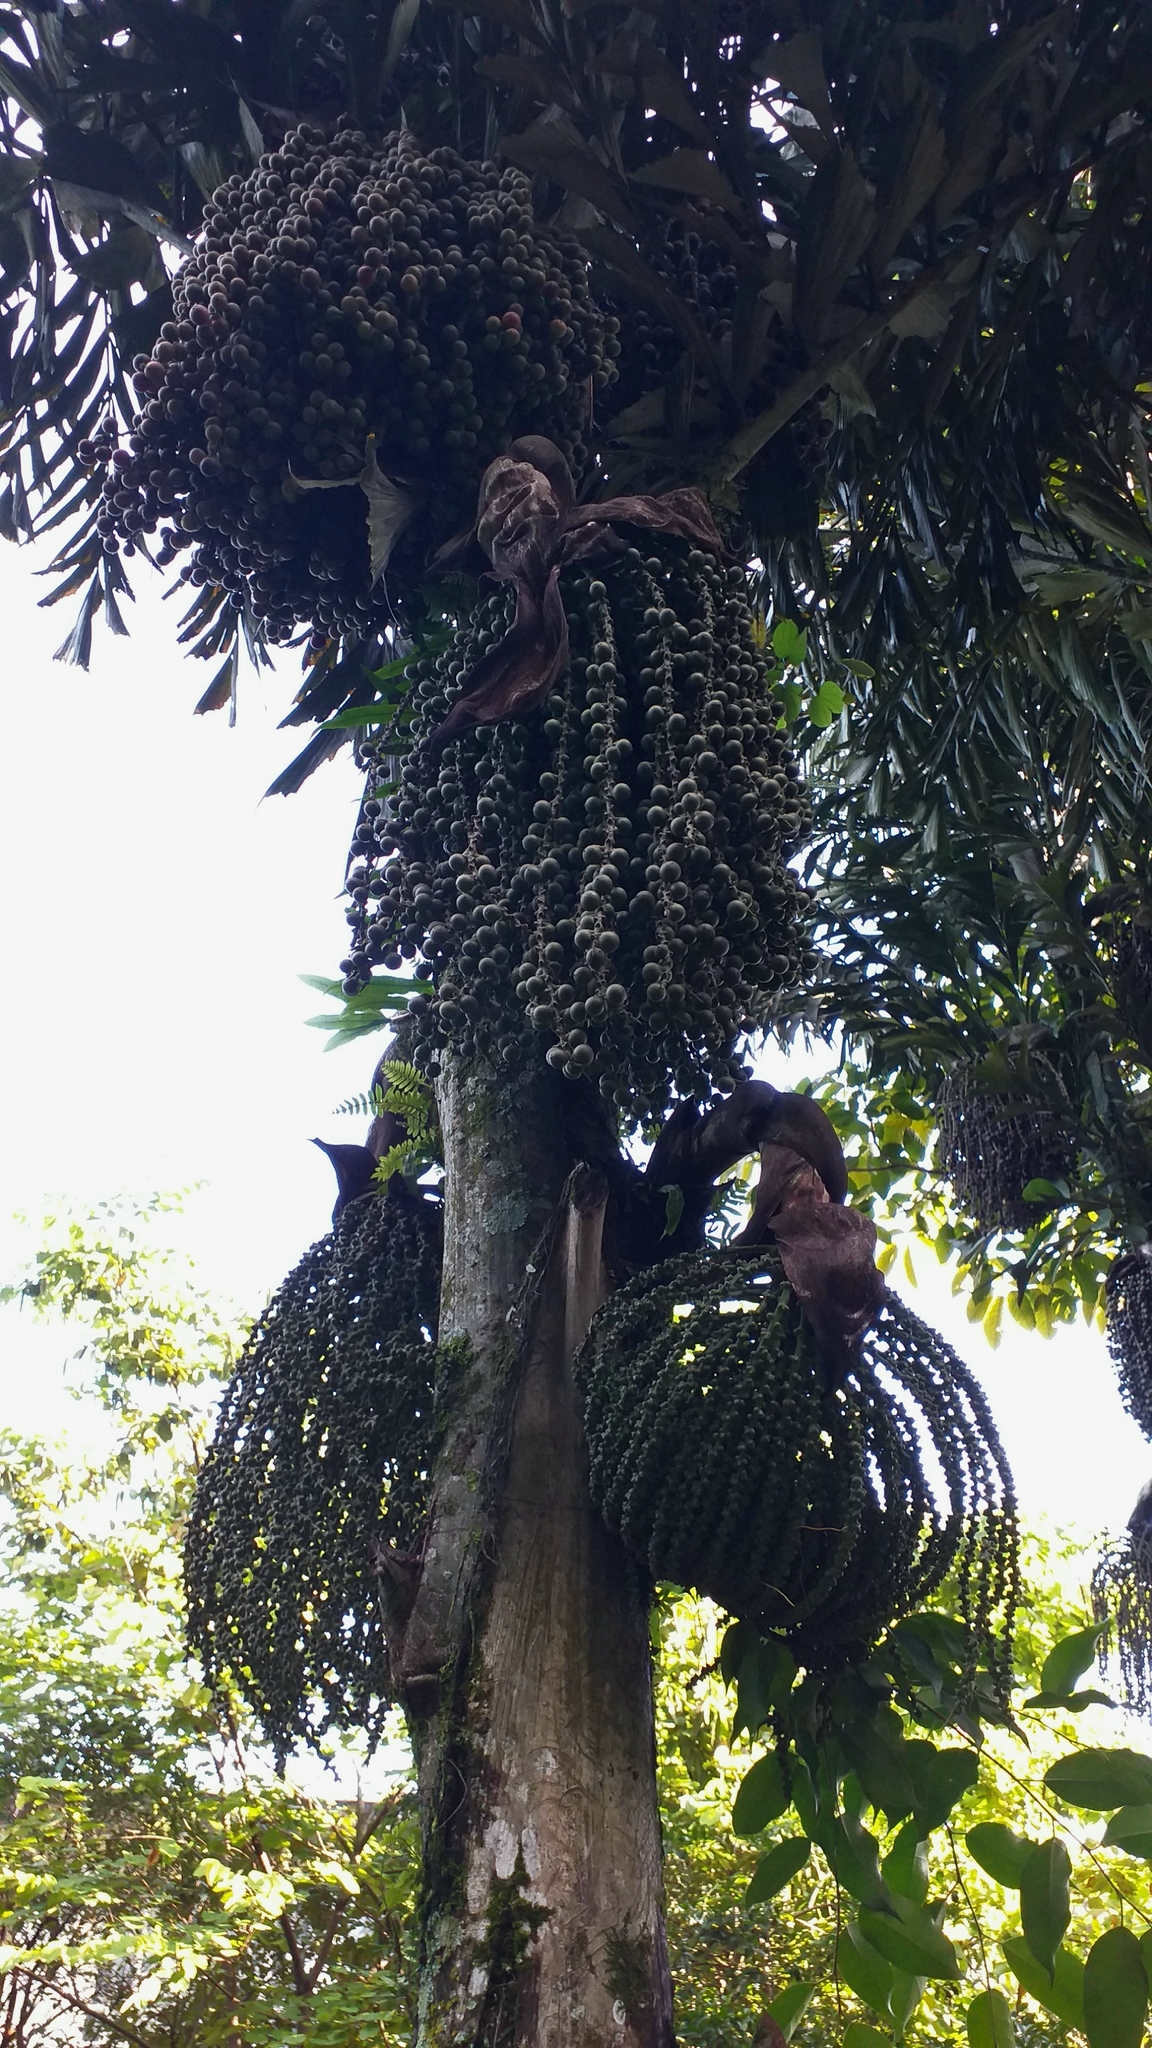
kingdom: Plantae
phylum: Tracheophyta
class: Liliopsida
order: Arecales
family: Arecaceae
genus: Caryota
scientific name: Caryota mitis
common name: Burmese fishtail palm
